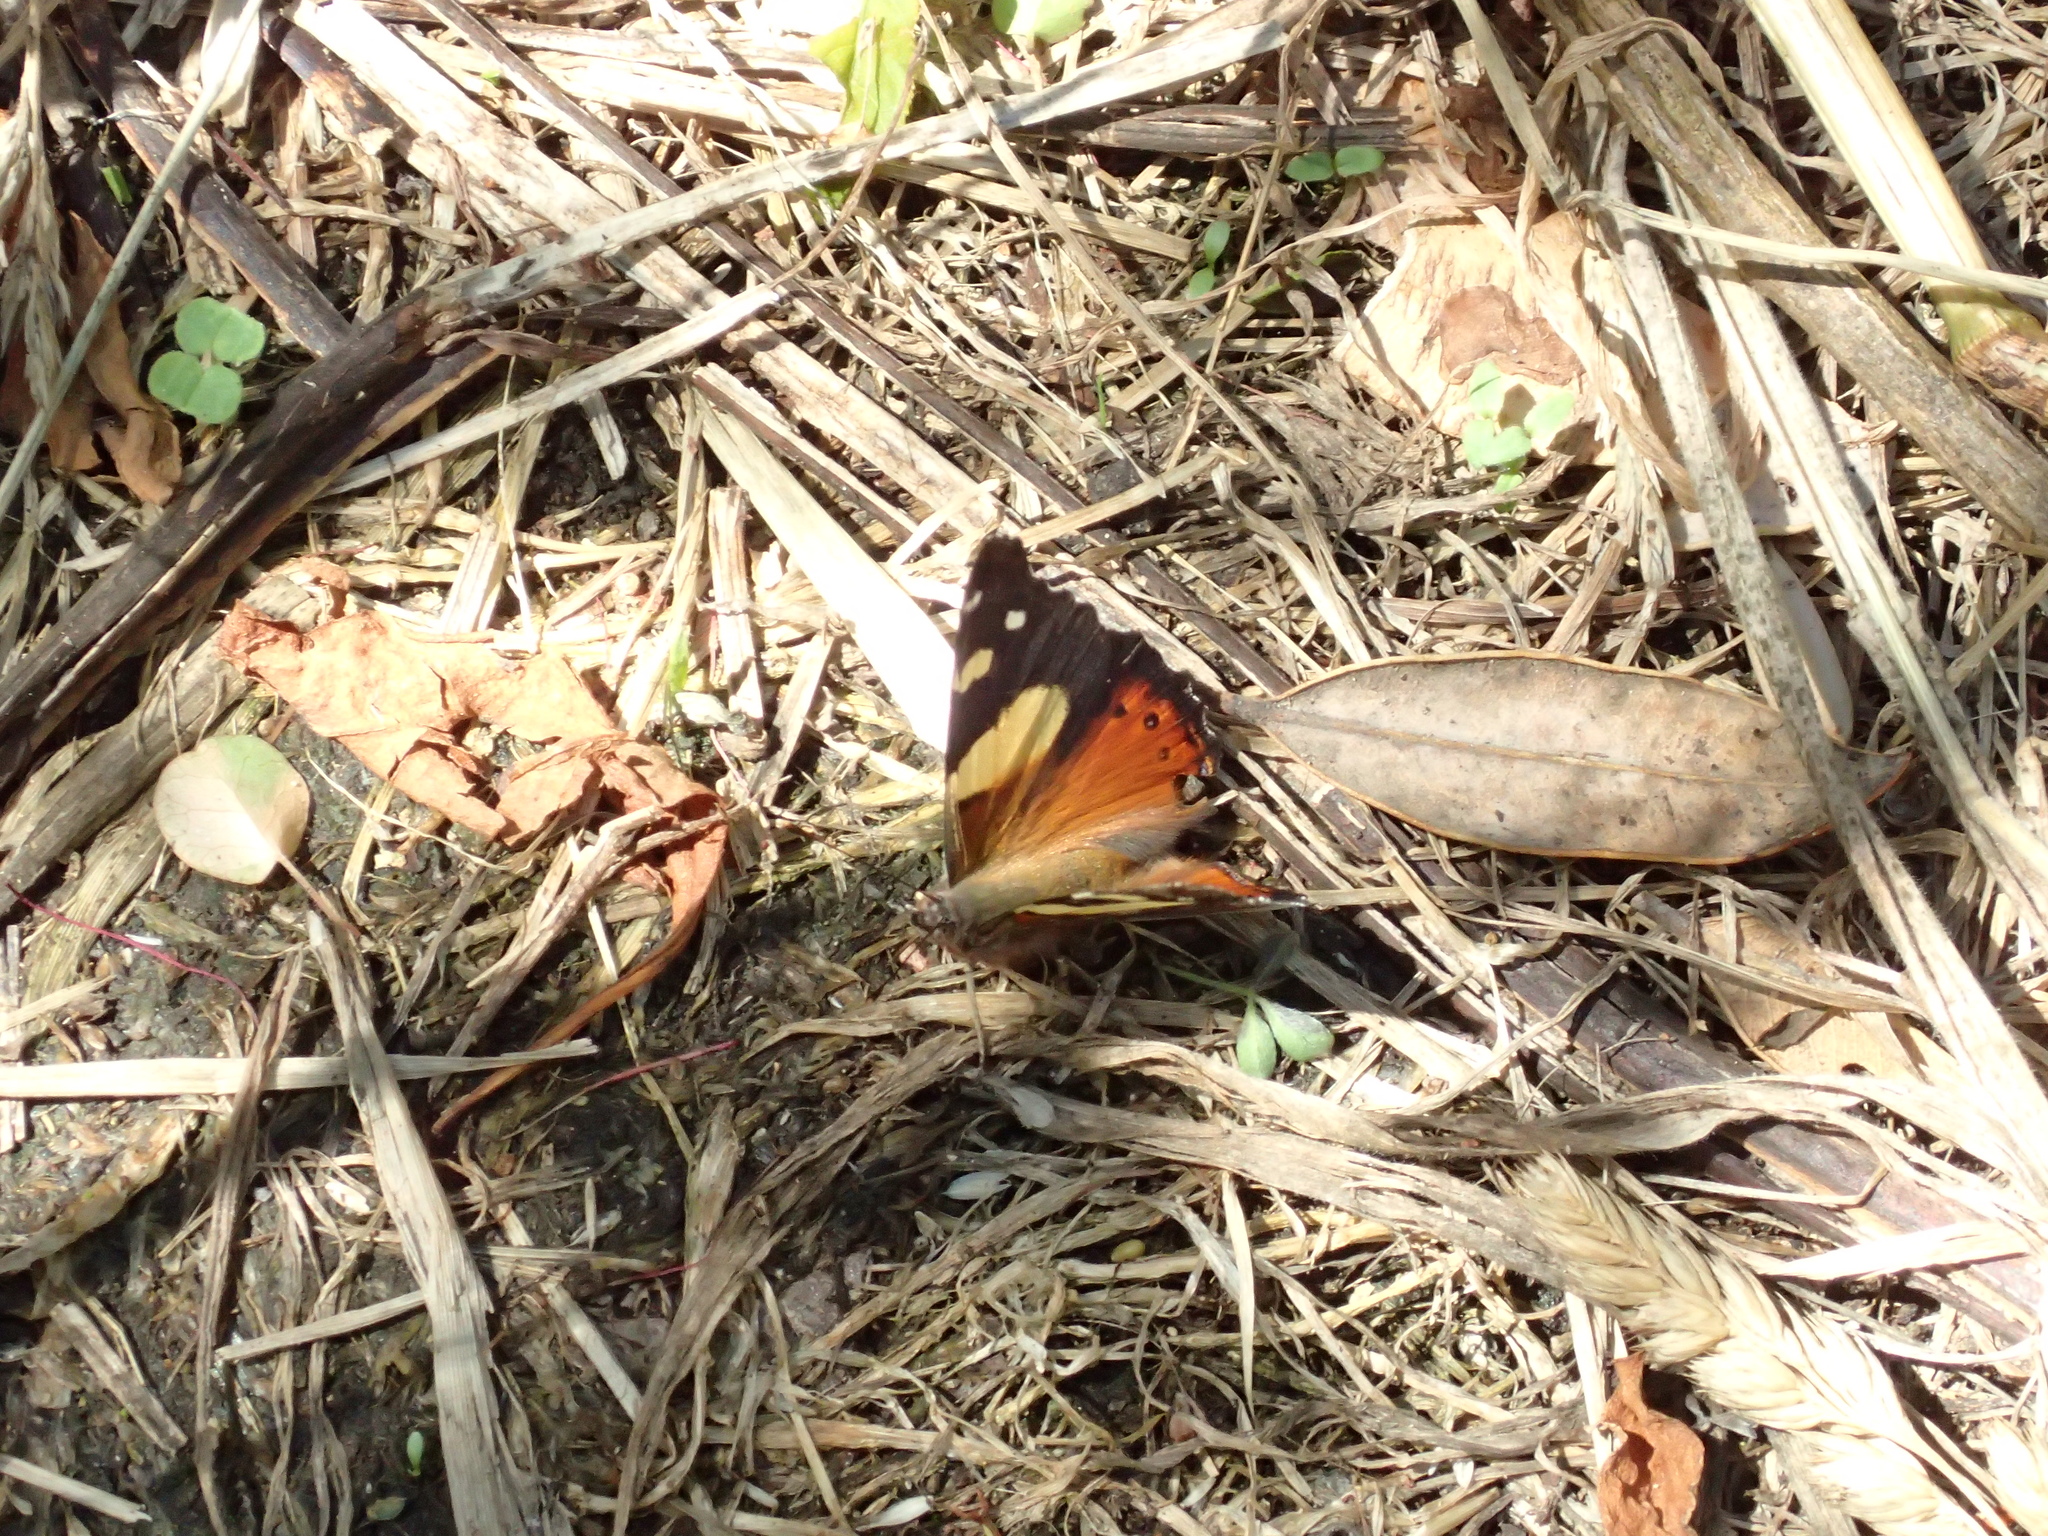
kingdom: Animalia
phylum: Arthropoda
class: Insecta
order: Lepidoptera
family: Nymphalidae
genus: Vanessa
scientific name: Vanessa itea
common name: Yellow admiral
